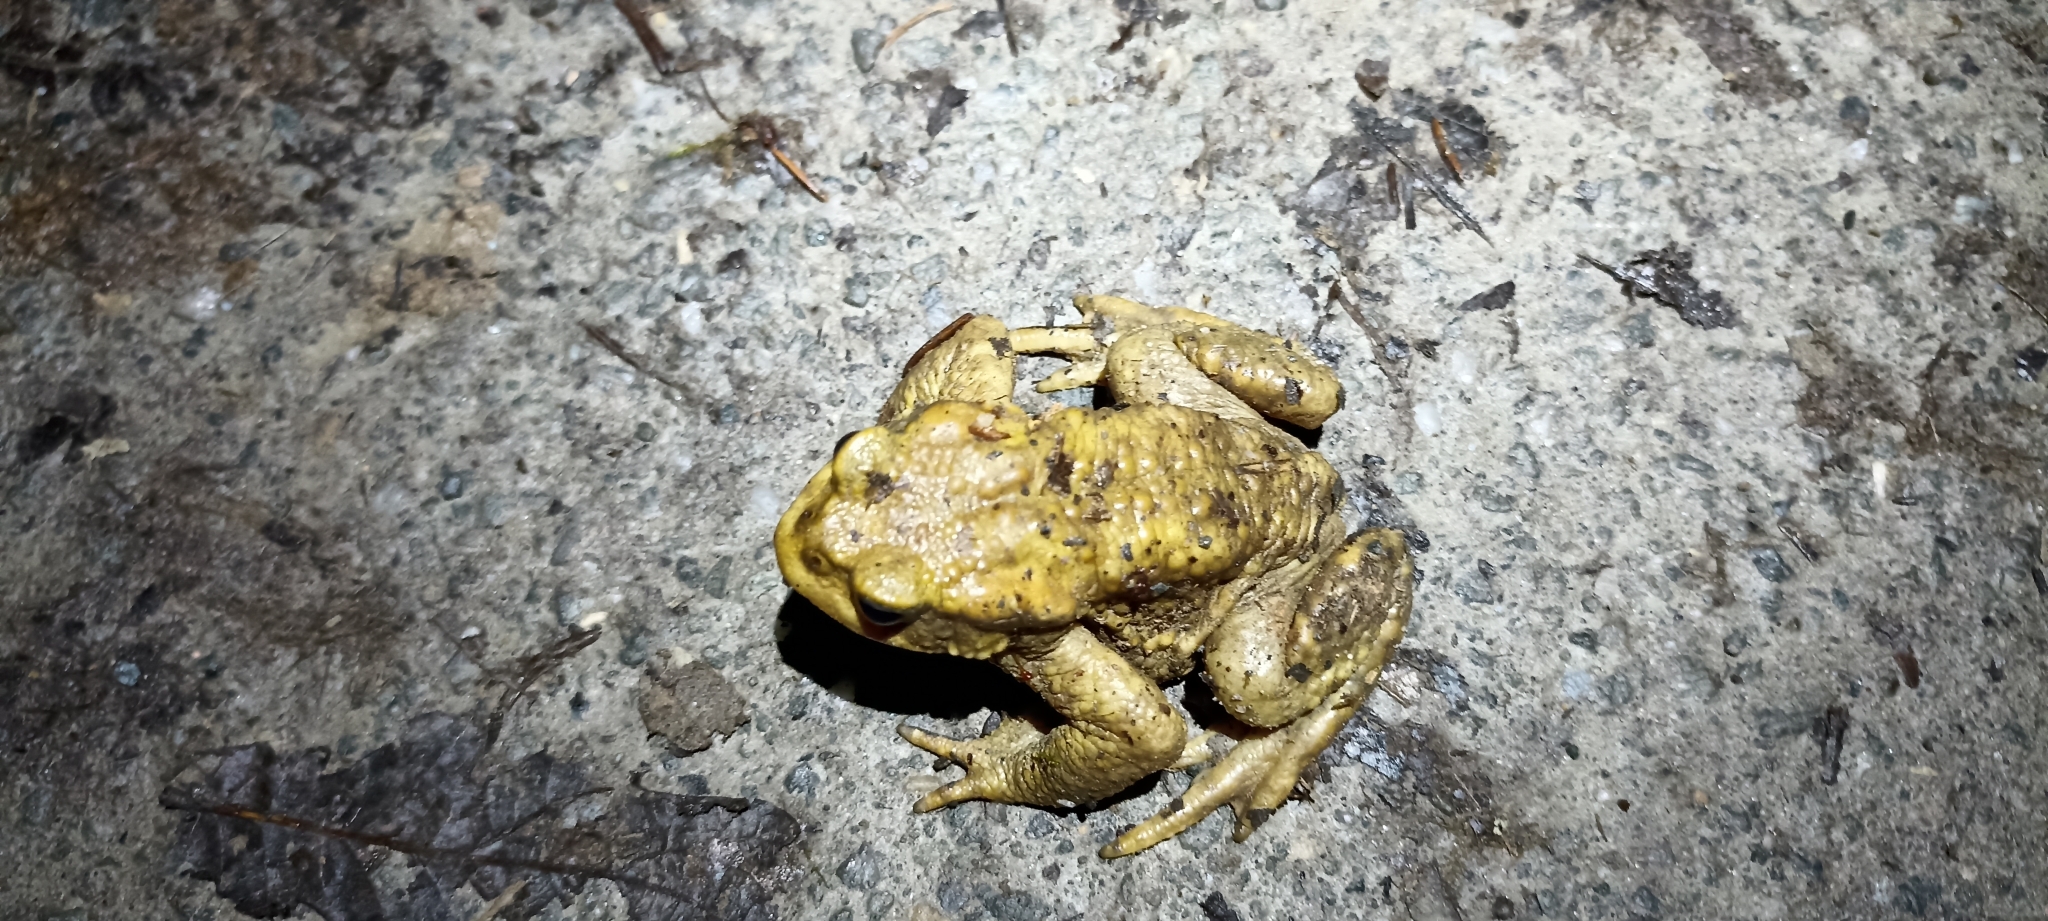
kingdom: Animalia
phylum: Chordata
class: Amphibia
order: Anura
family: Bufonidae
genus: Bufo
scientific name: Bufo spinosus
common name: Western common toad
